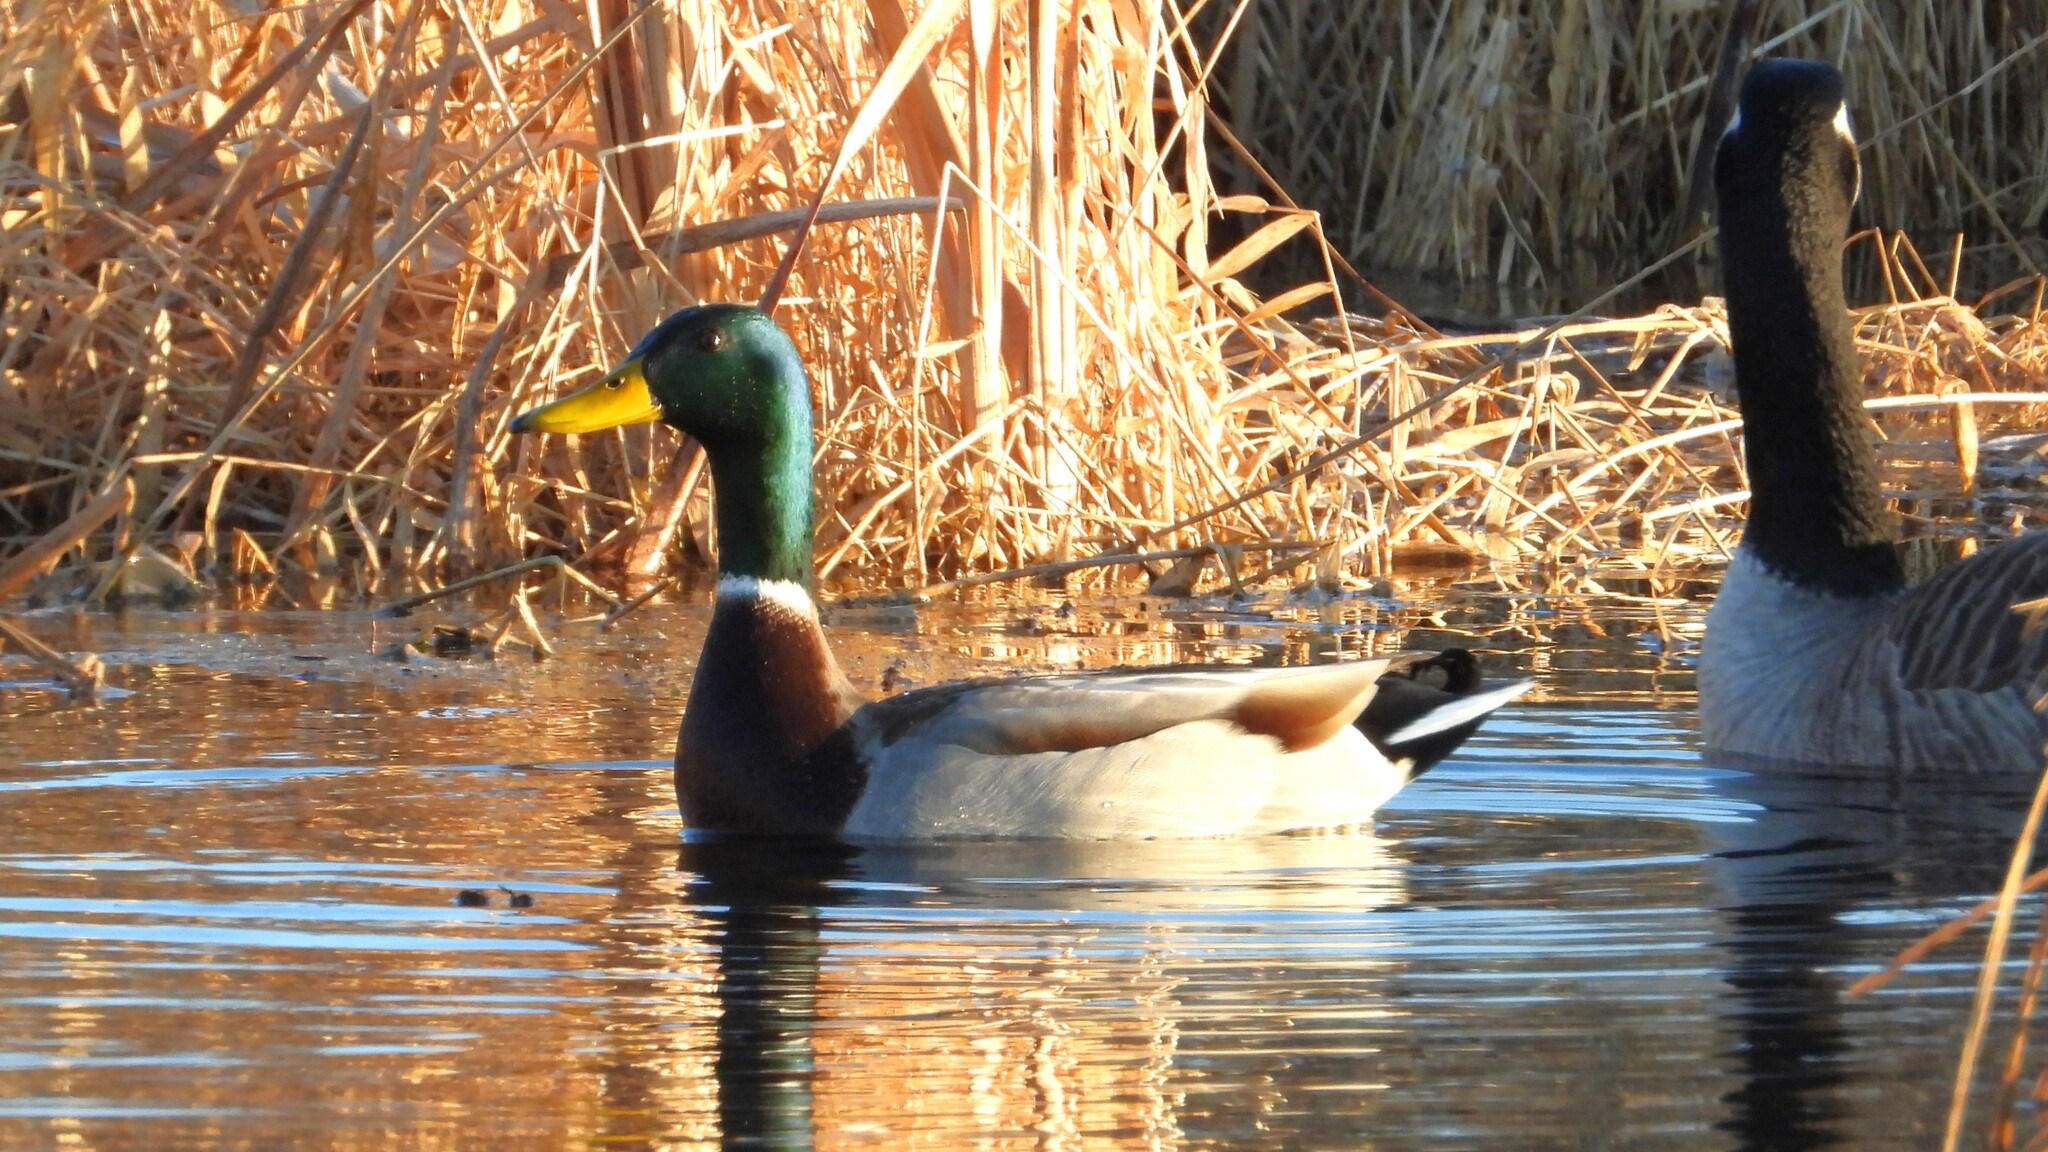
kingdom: Animalia
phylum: Chordata
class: Aves
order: Anseriformes
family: Anatidae
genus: Anas
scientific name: Anas platyrhynchos
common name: Mallard
